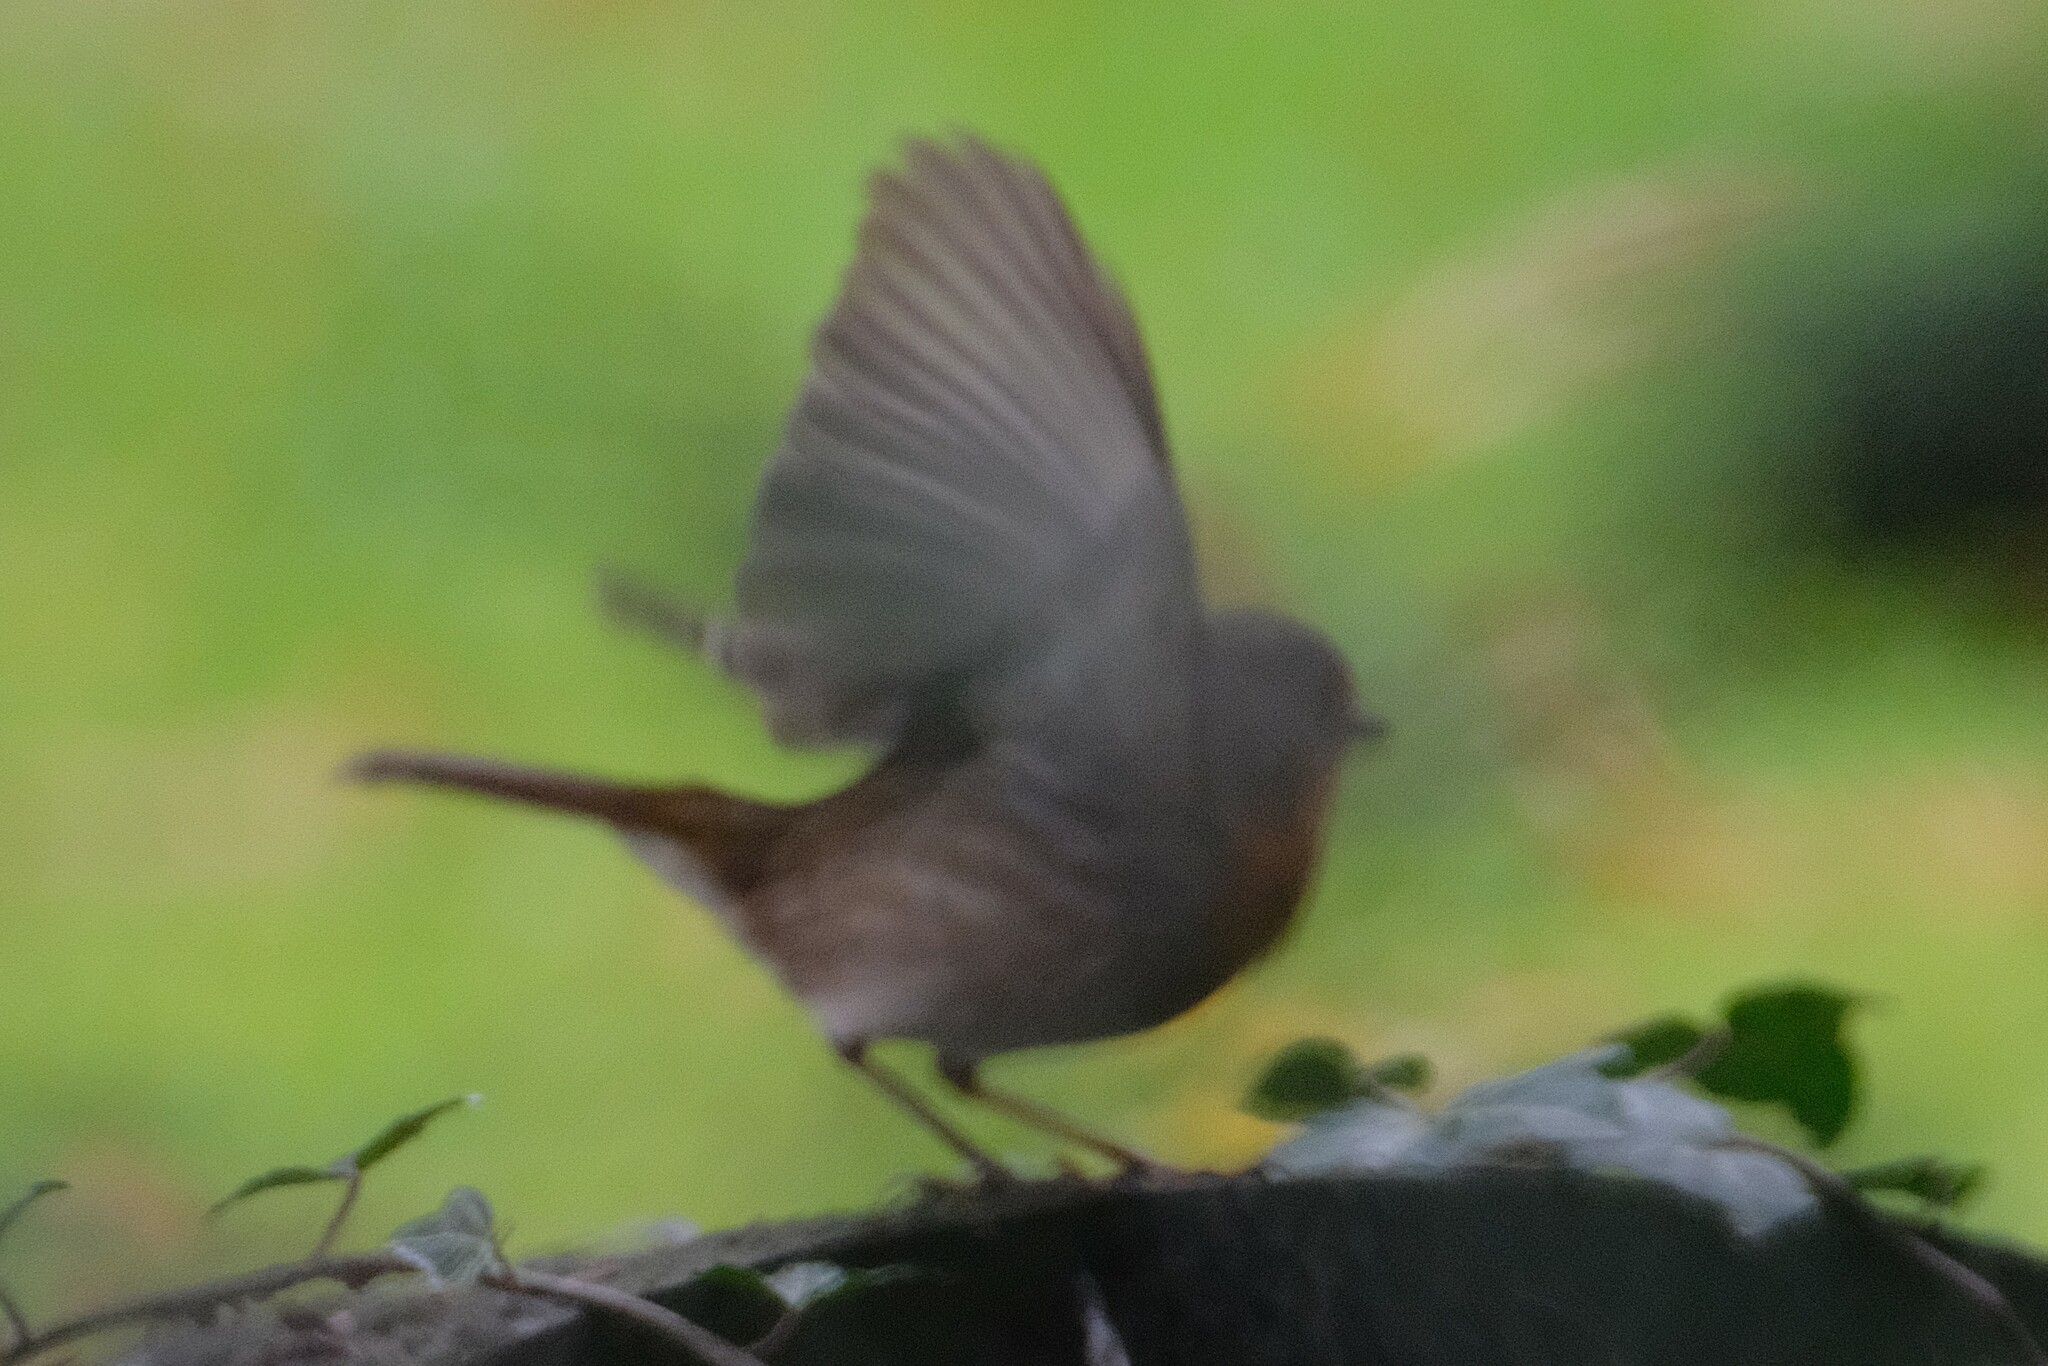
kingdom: Animalia
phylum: Chordata
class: Aves
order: Passeriformes
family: Muscicapidae
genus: Erithacus
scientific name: Erithacus rubecula
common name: European robin
